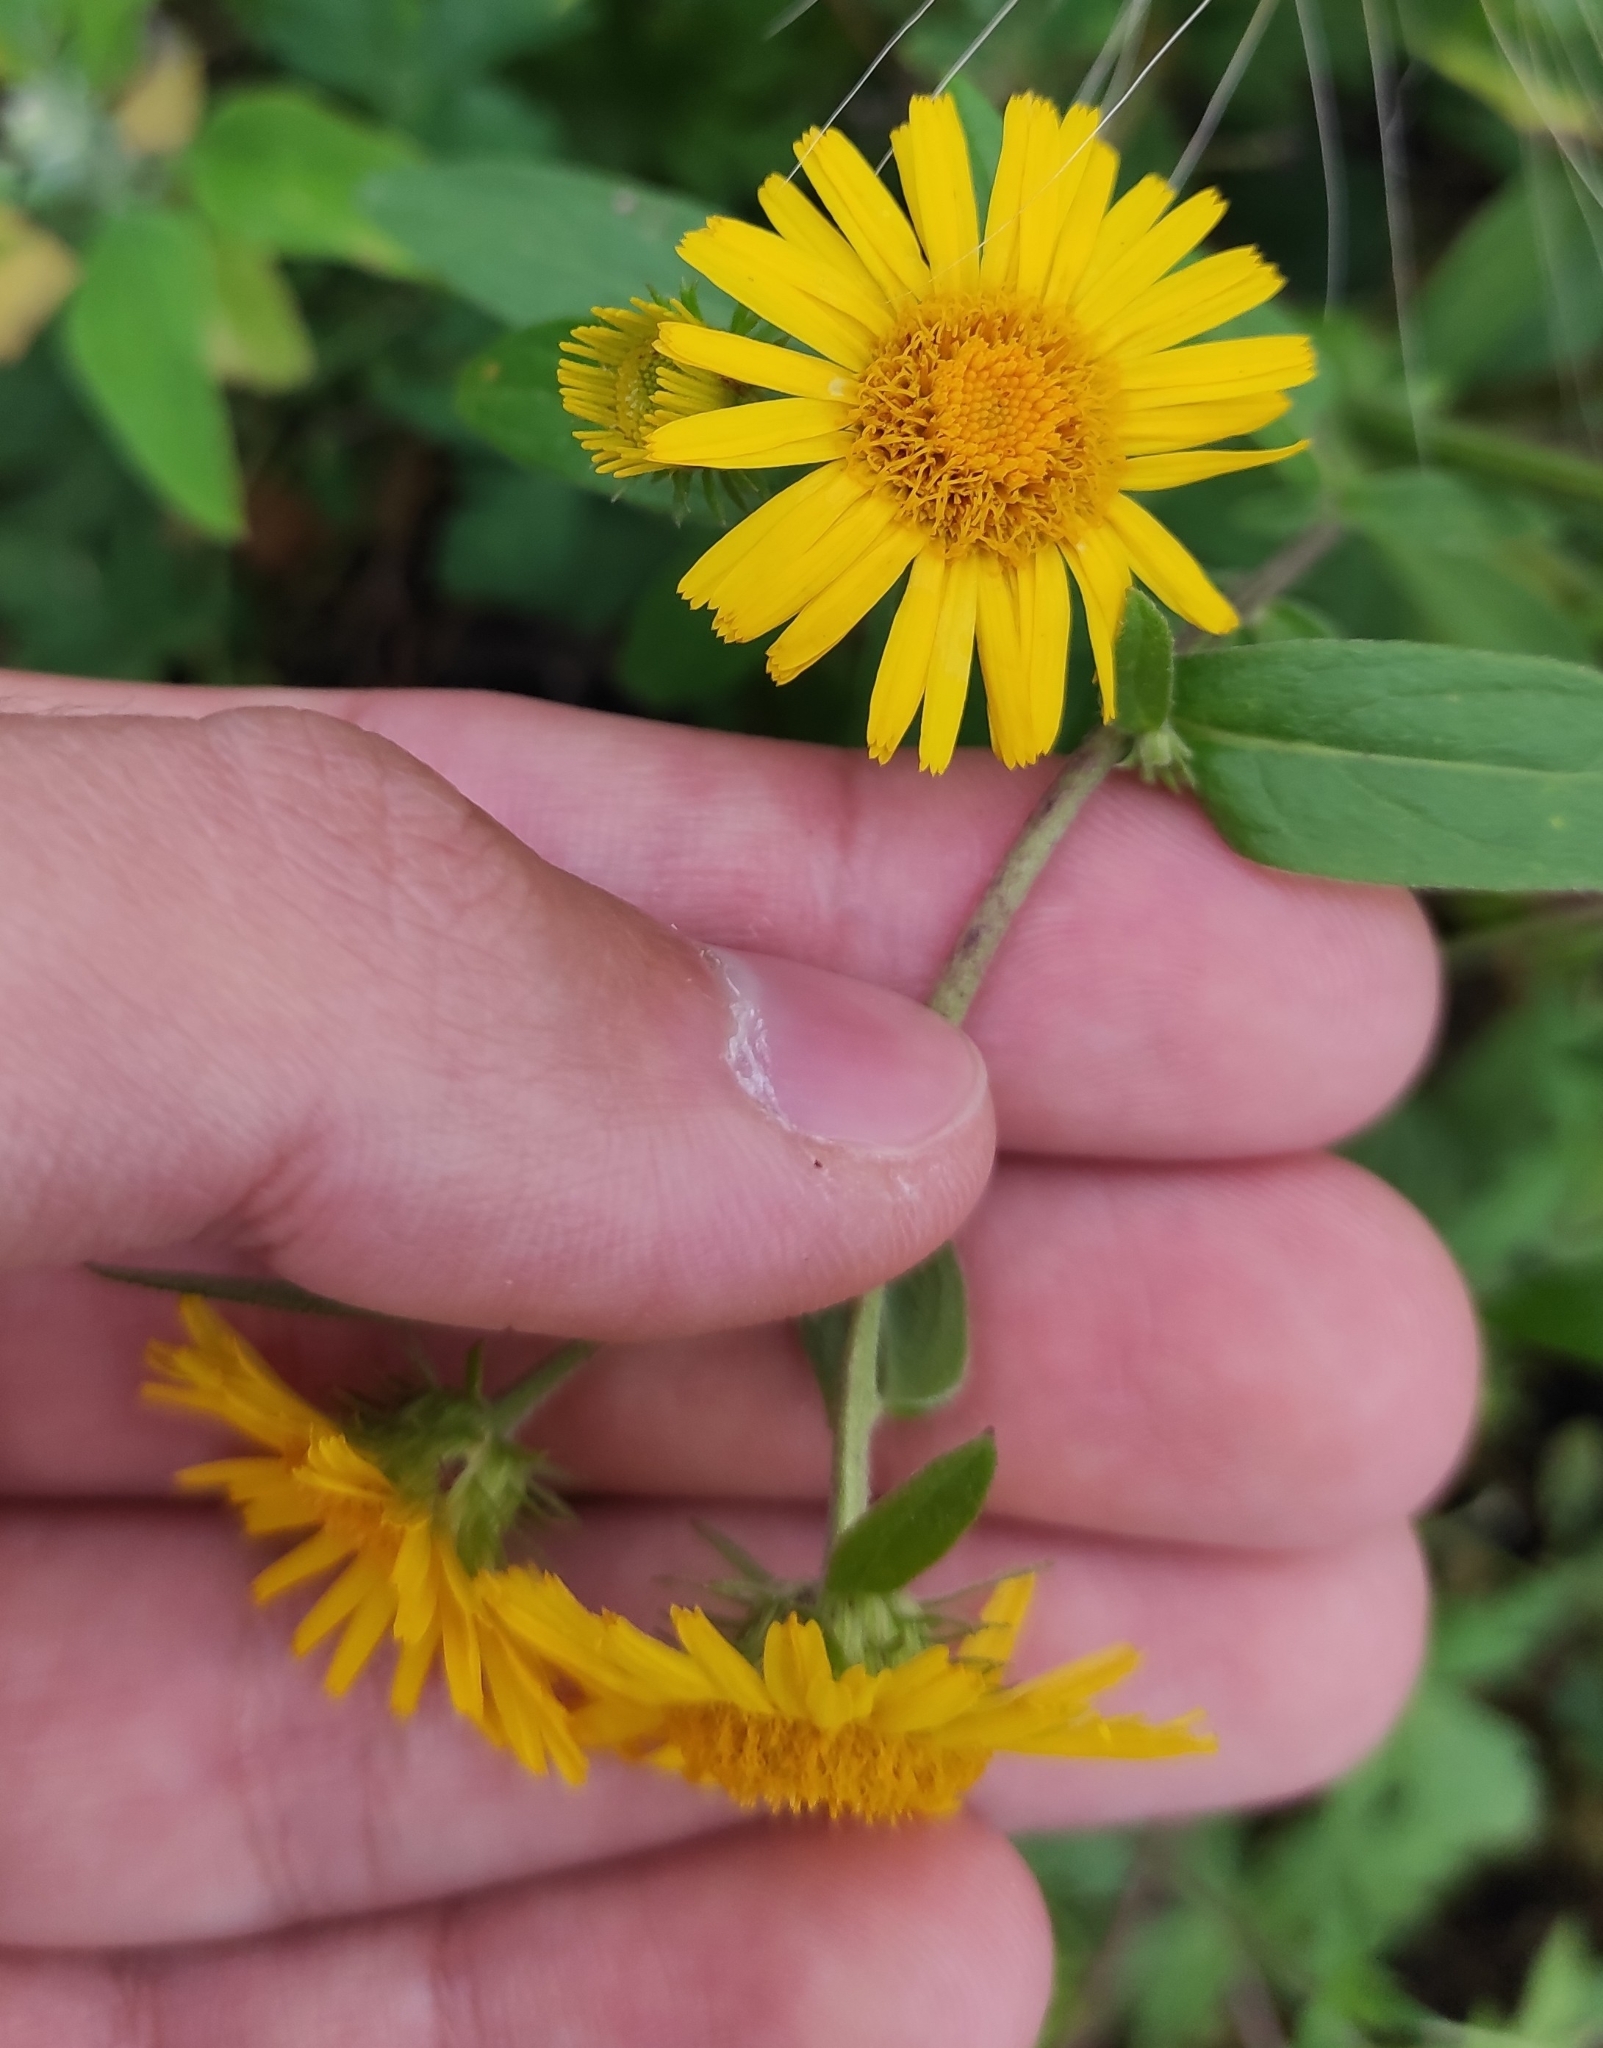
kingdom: Plantae
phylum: Tracheophyta
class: Magnoliopsida
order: Asterales
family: Asteraceae
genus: Inula
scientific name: Inula japonica
